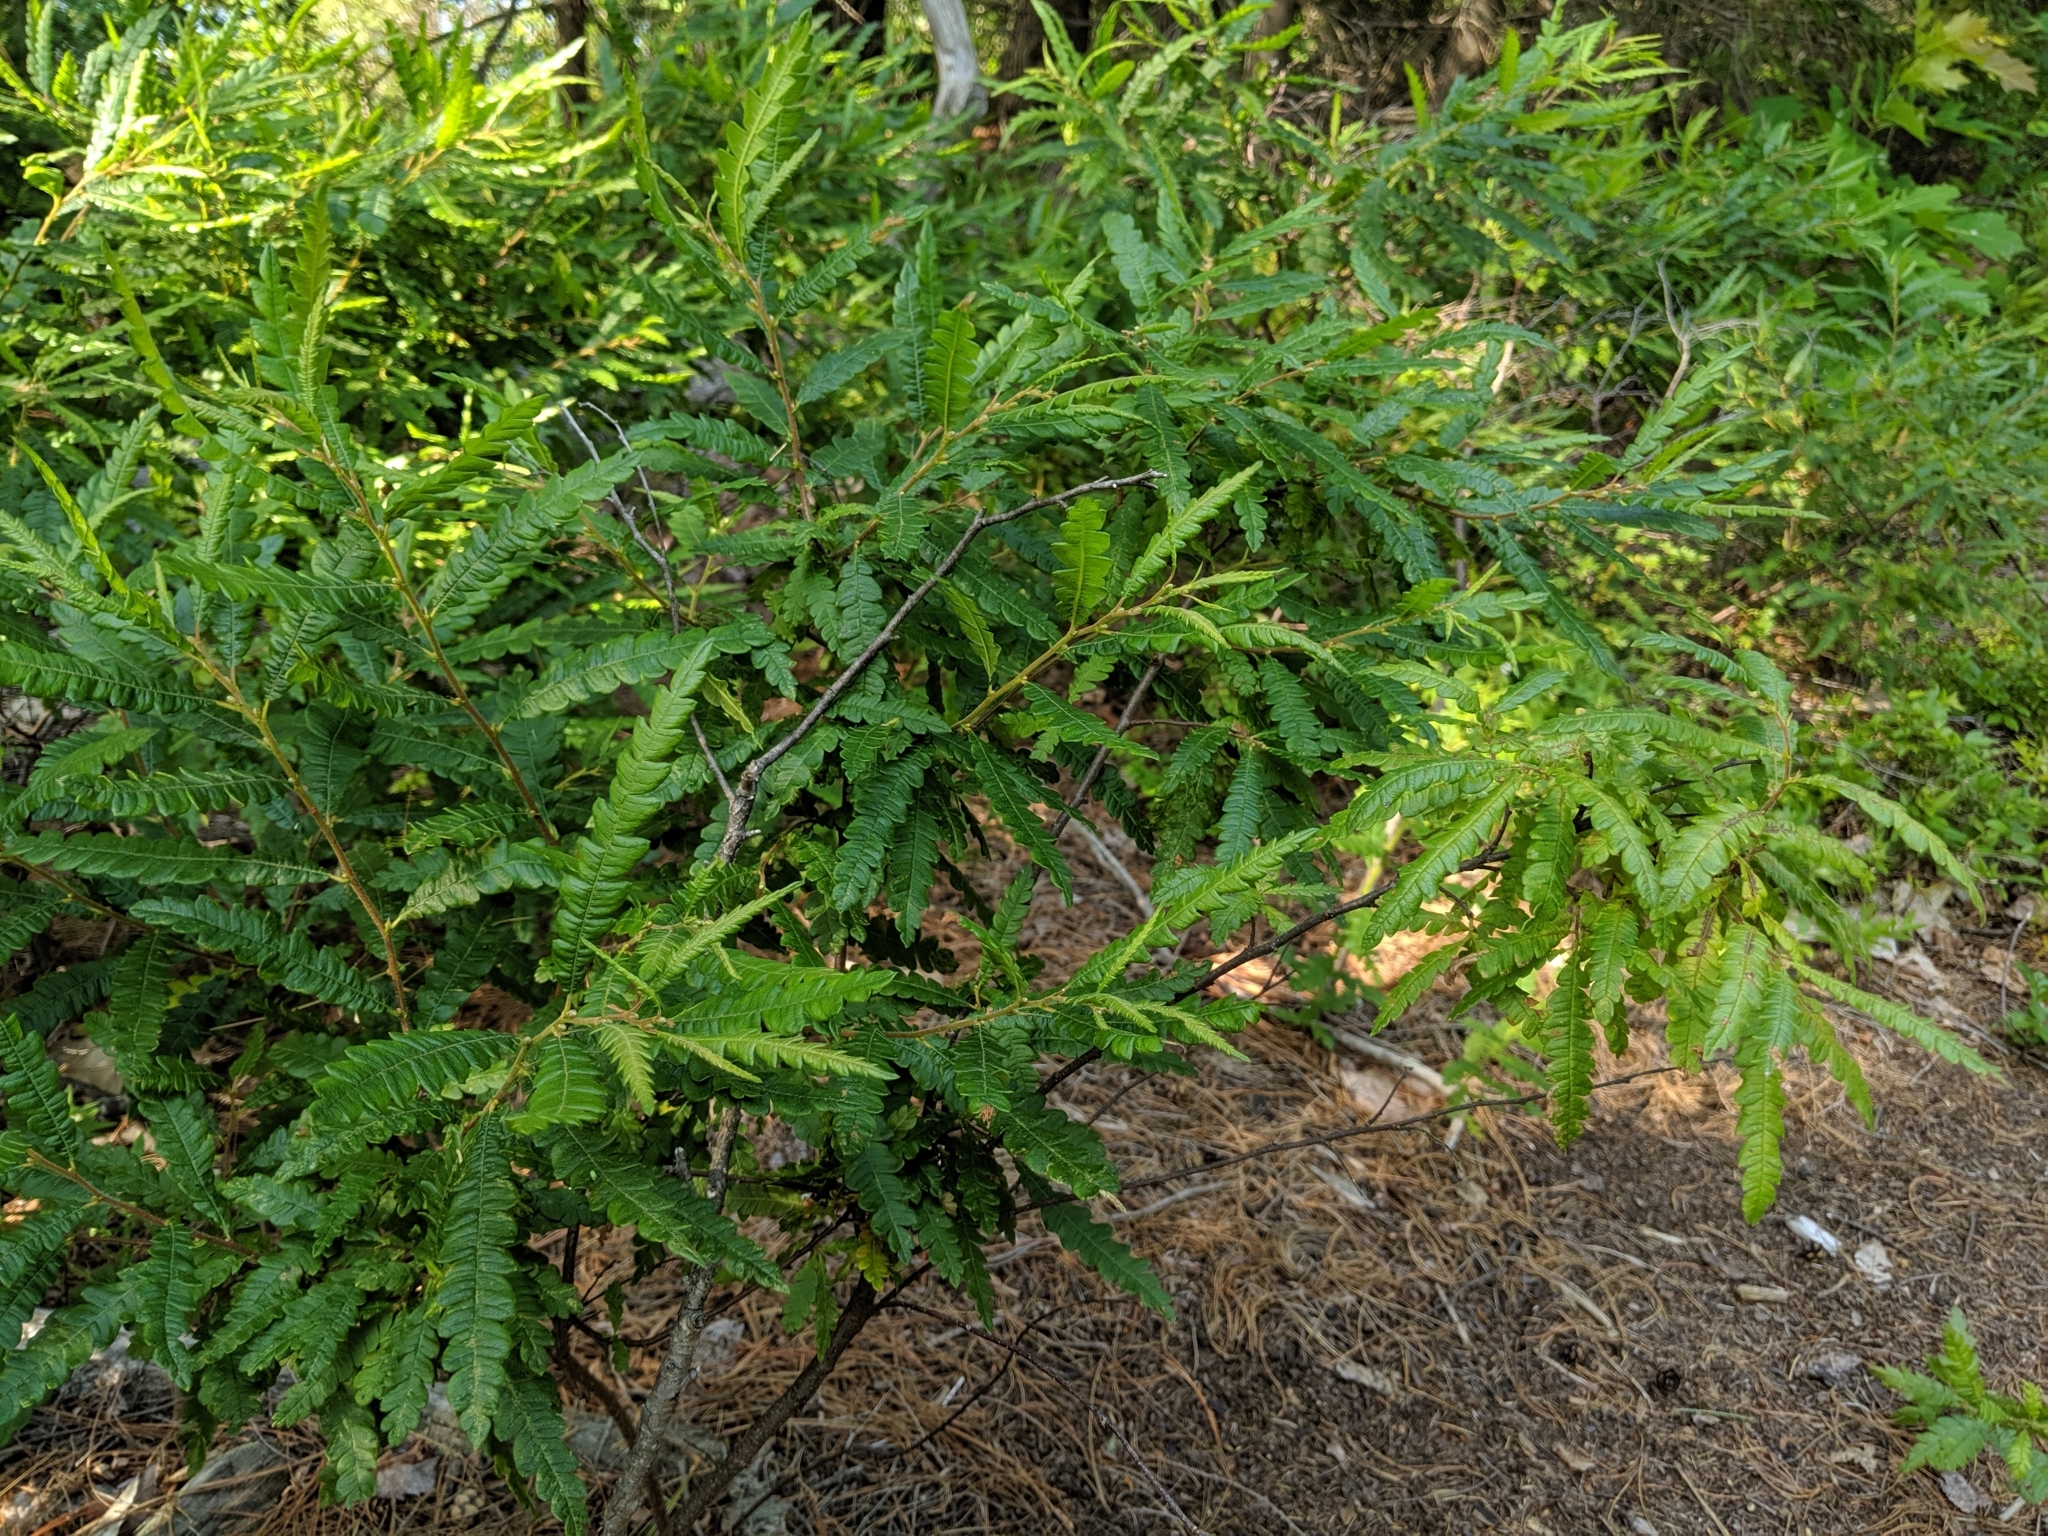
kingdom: Plantae
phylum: Tracheophyta
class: Magnoliopsida
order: Fagales
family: Myricaceae
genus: Comptonia
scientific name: Comptonia peregrina
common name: Sweet-fern
